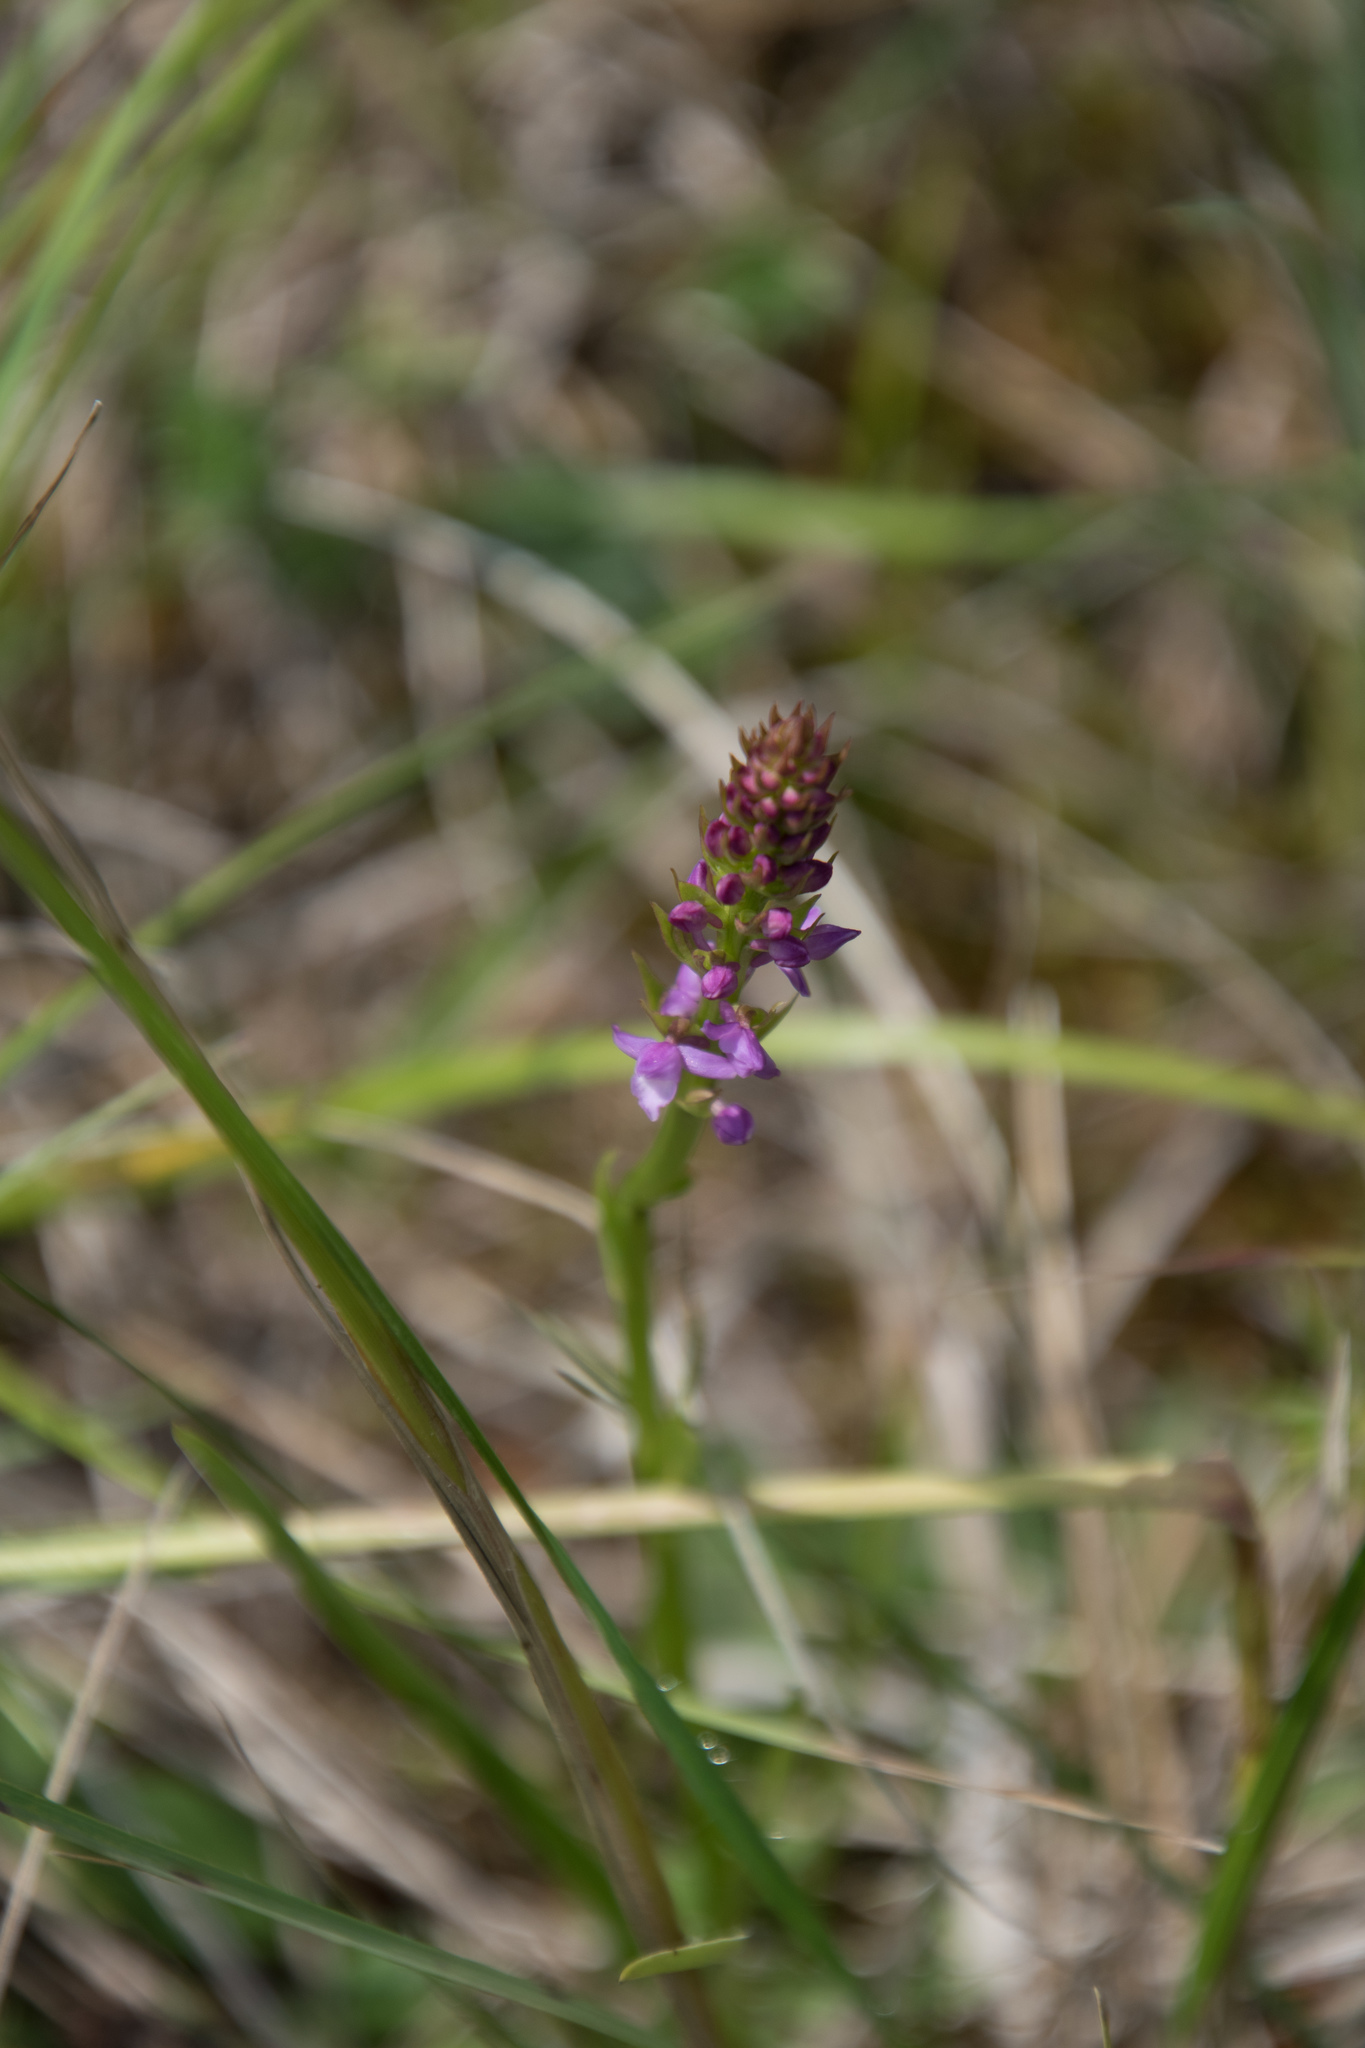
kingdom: Plantae
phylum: Tracheophyta
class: Liliopsida
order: Asparagales
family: Orchidaceae
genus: Gymnadenia
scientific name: Gymnadenia odoratissima
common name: Scented gymnadenia
